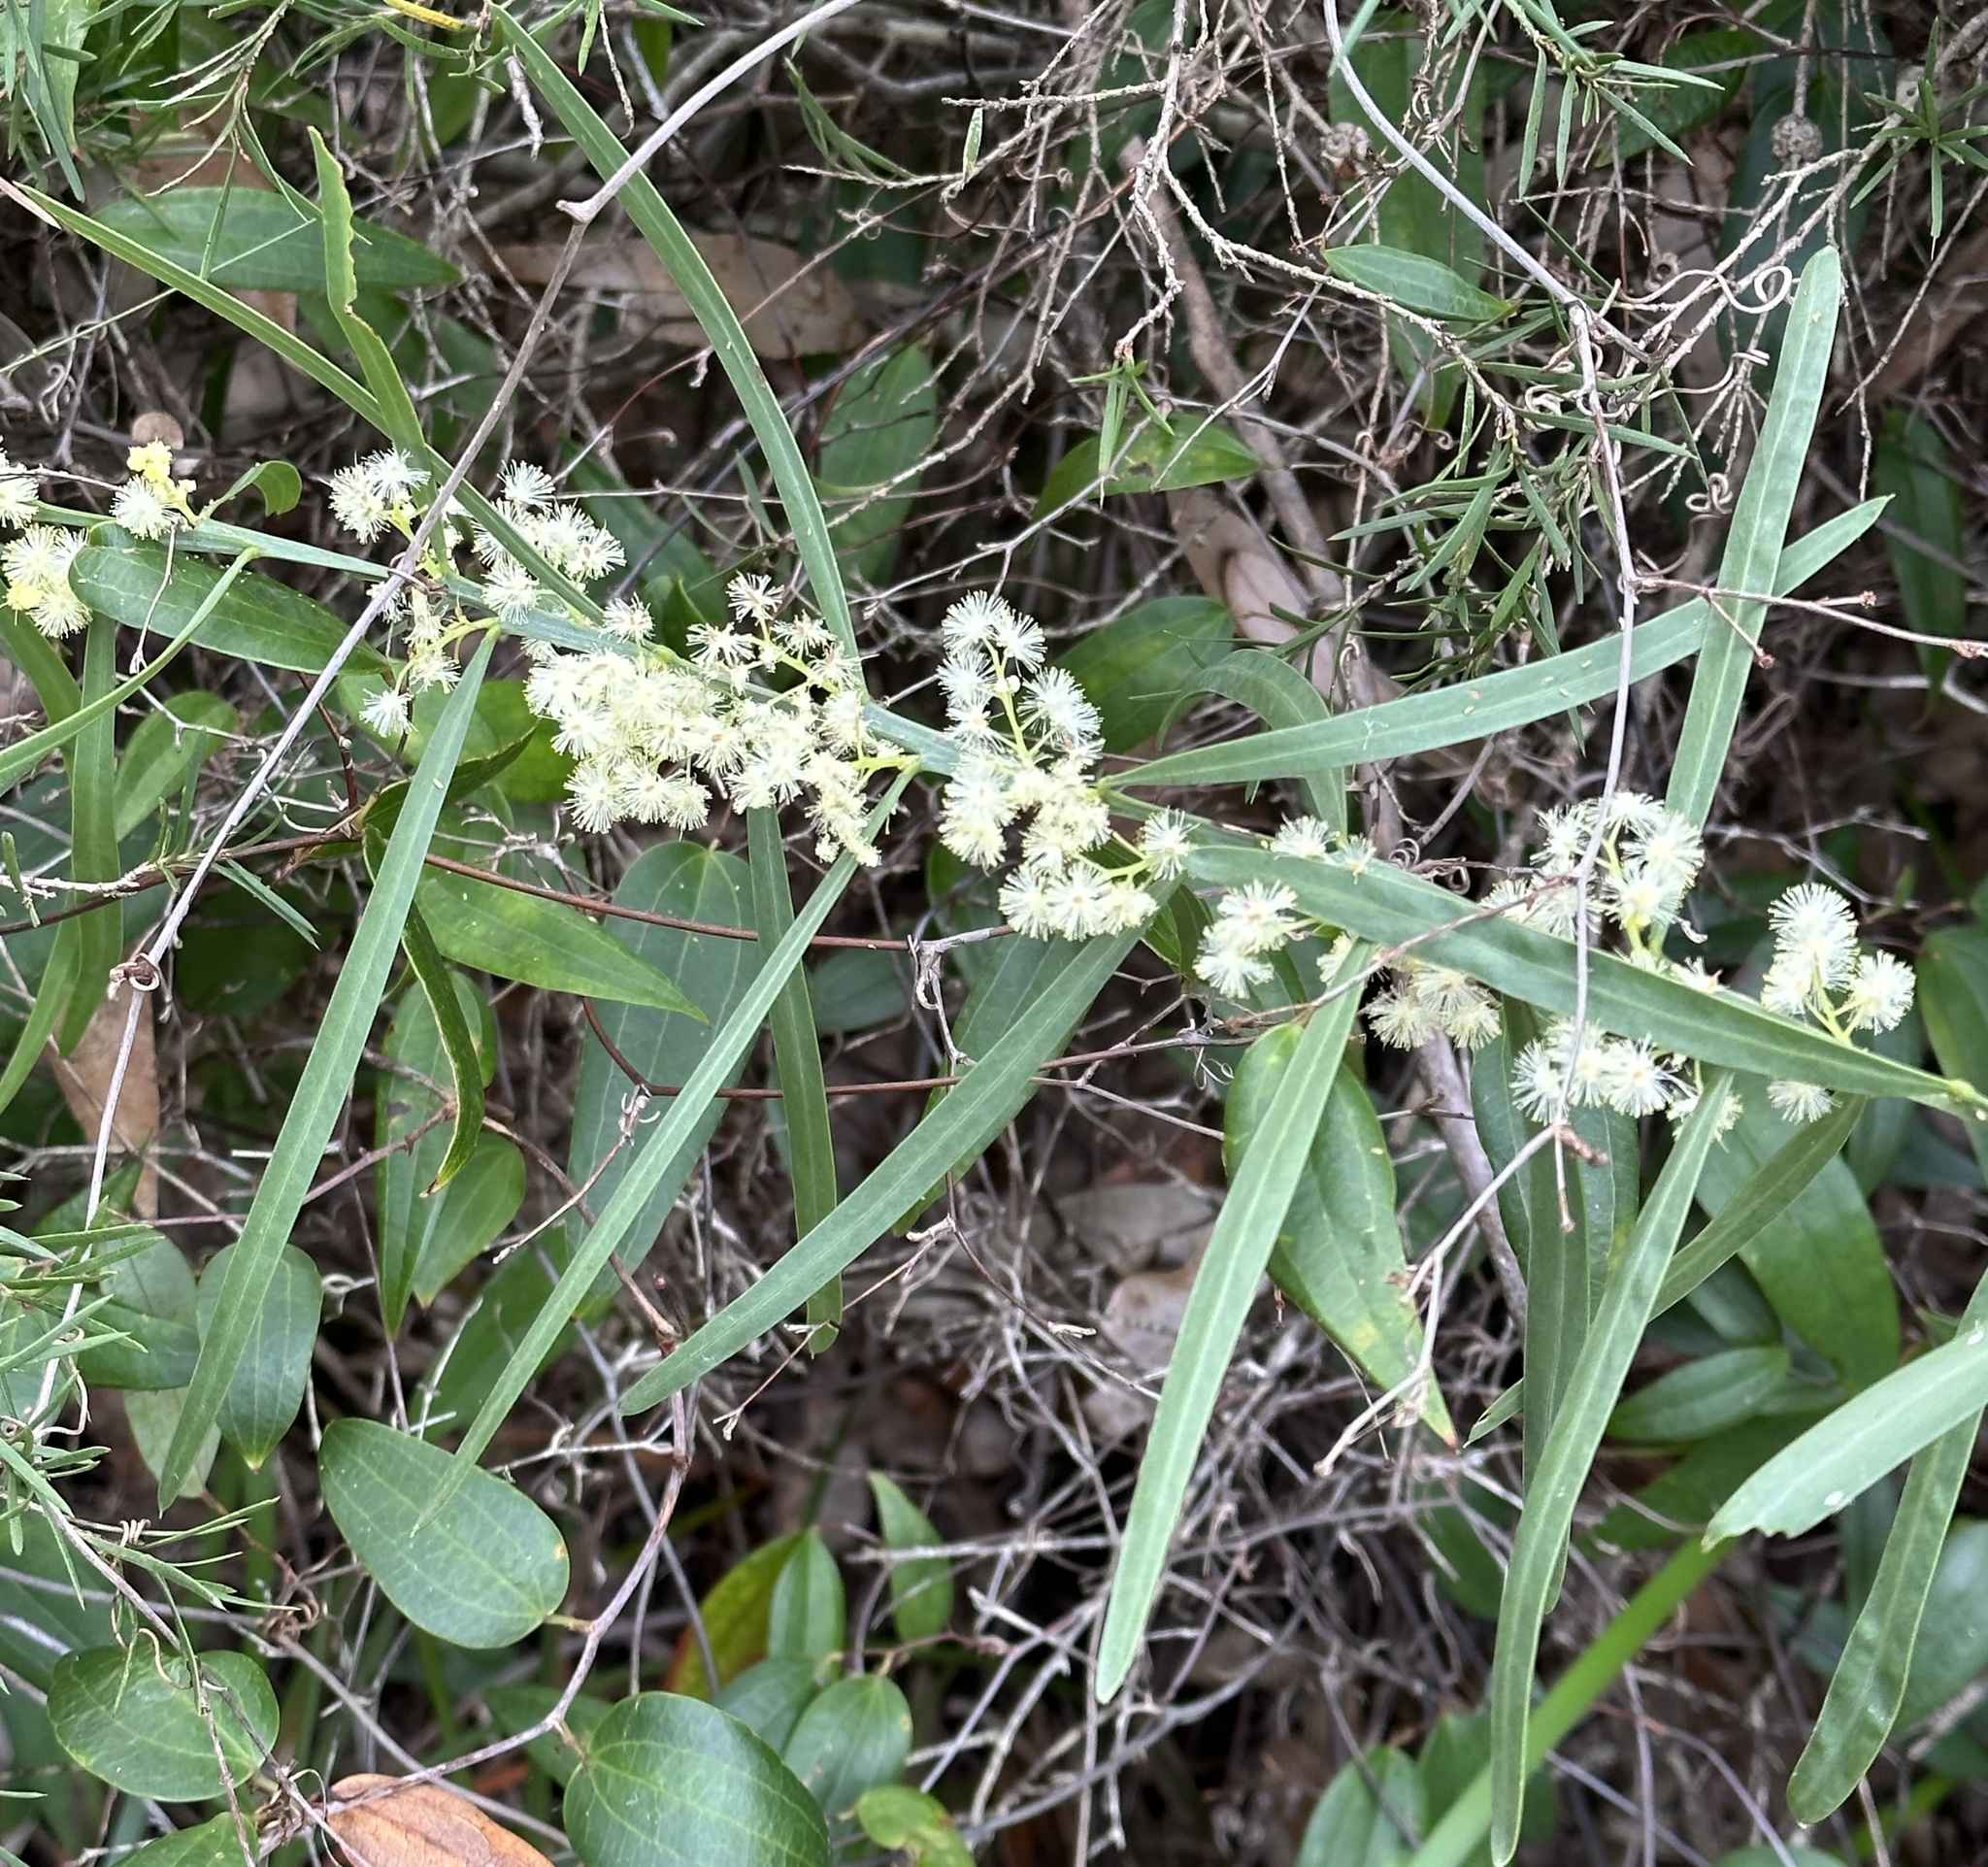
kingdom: Plantae
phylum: Tracheophyta
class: Magnoliopsida
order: Fabales
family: Fabaceae
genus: Acacia
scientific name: Acacia suaveolens
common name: Sweet acacia
